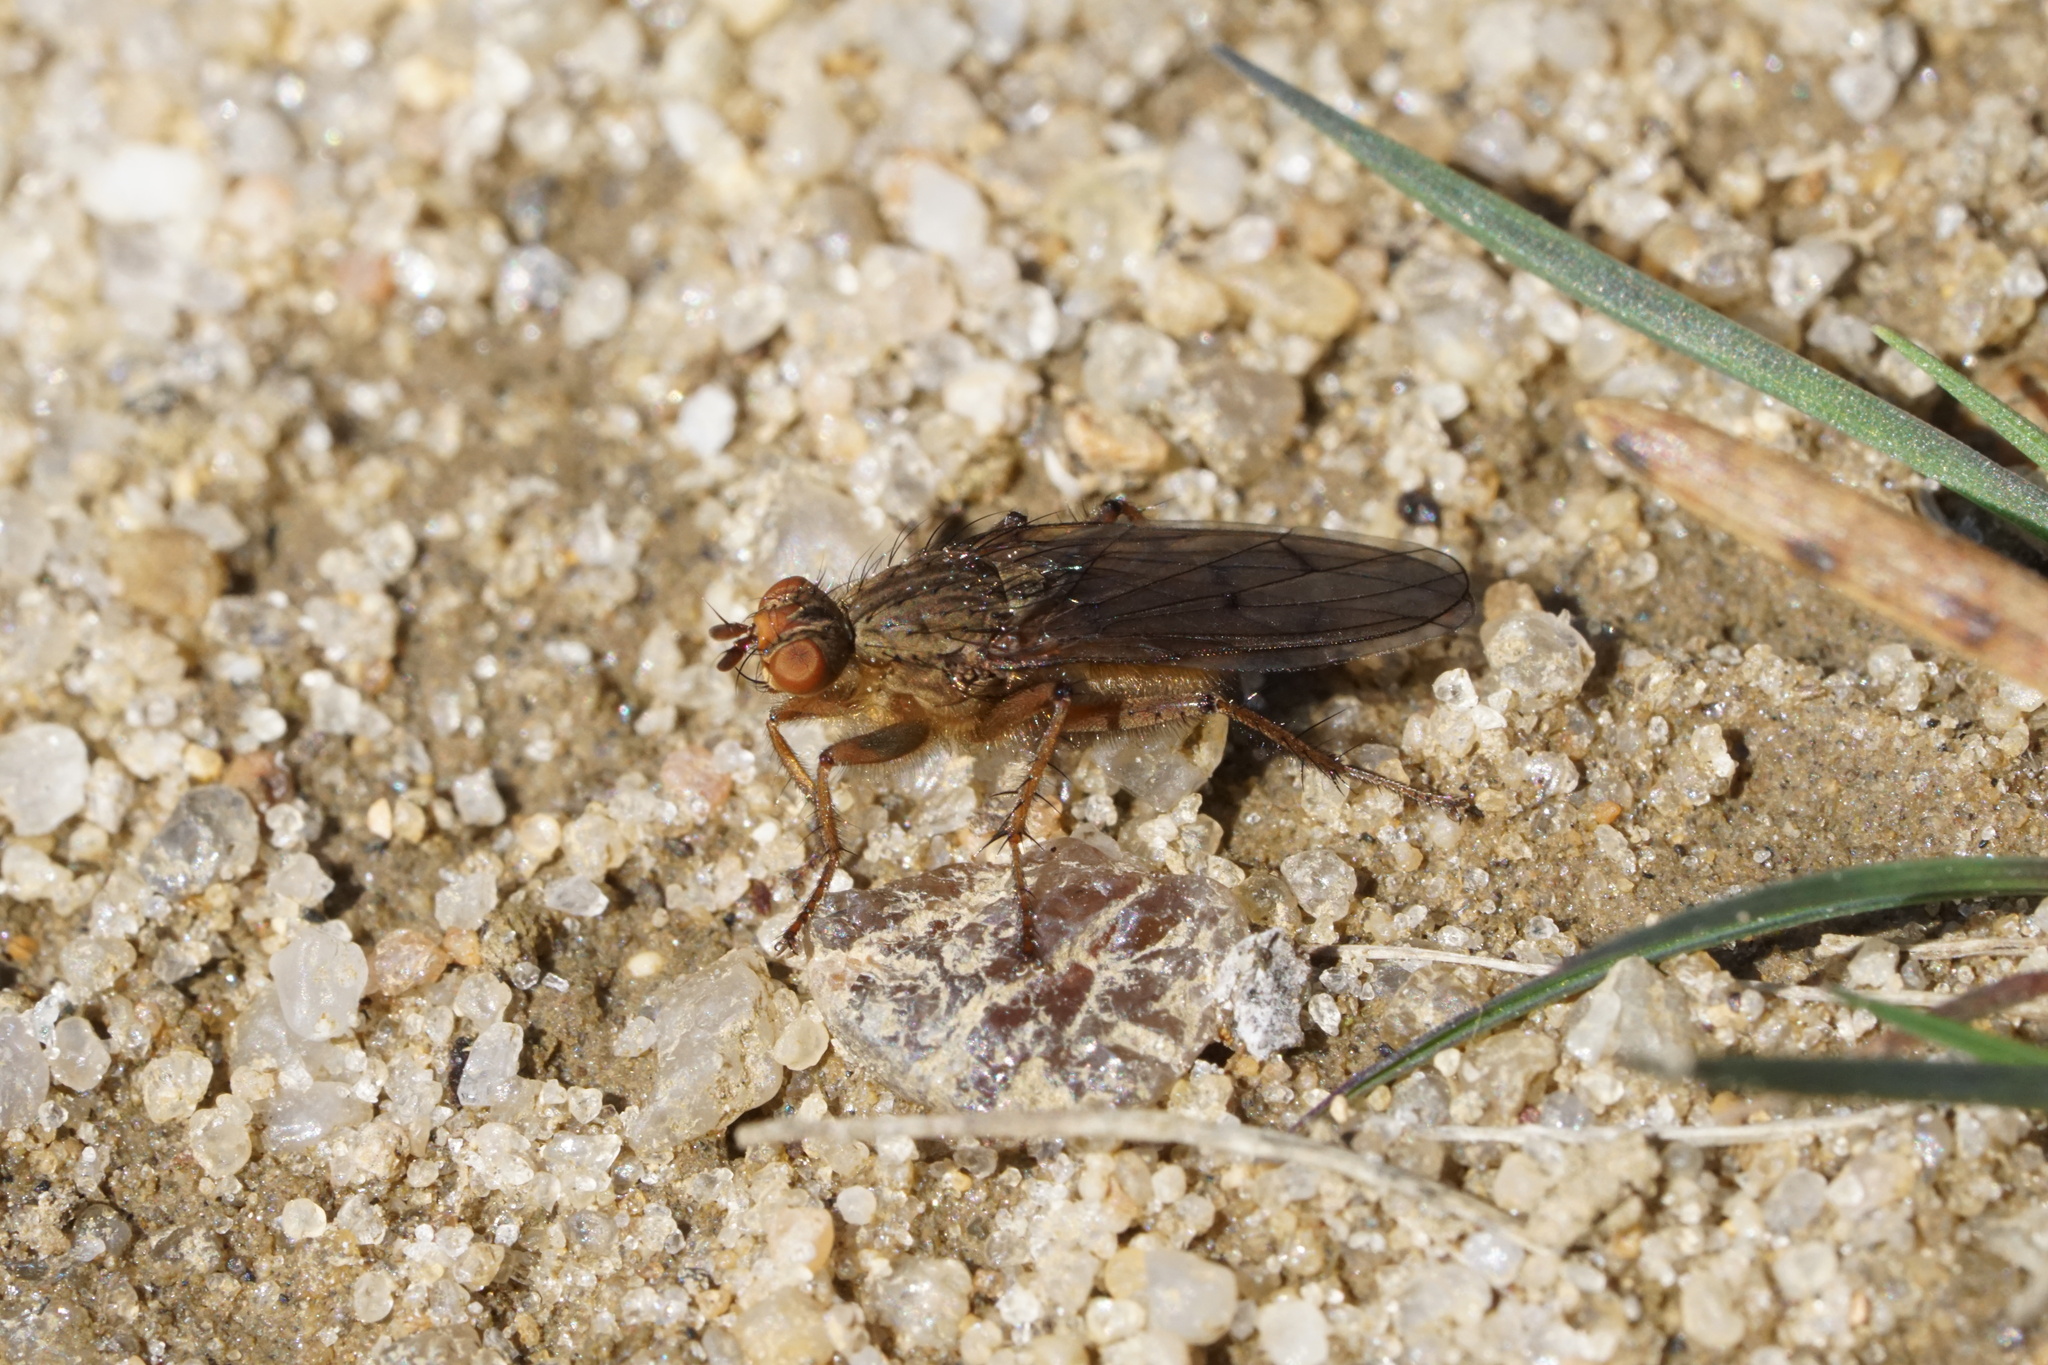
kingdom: Animalia
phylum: Arthropoda
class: Insecta
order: Diptera
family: Scathophagidae
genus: Scathophaga
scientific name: Scathophaga furcata
